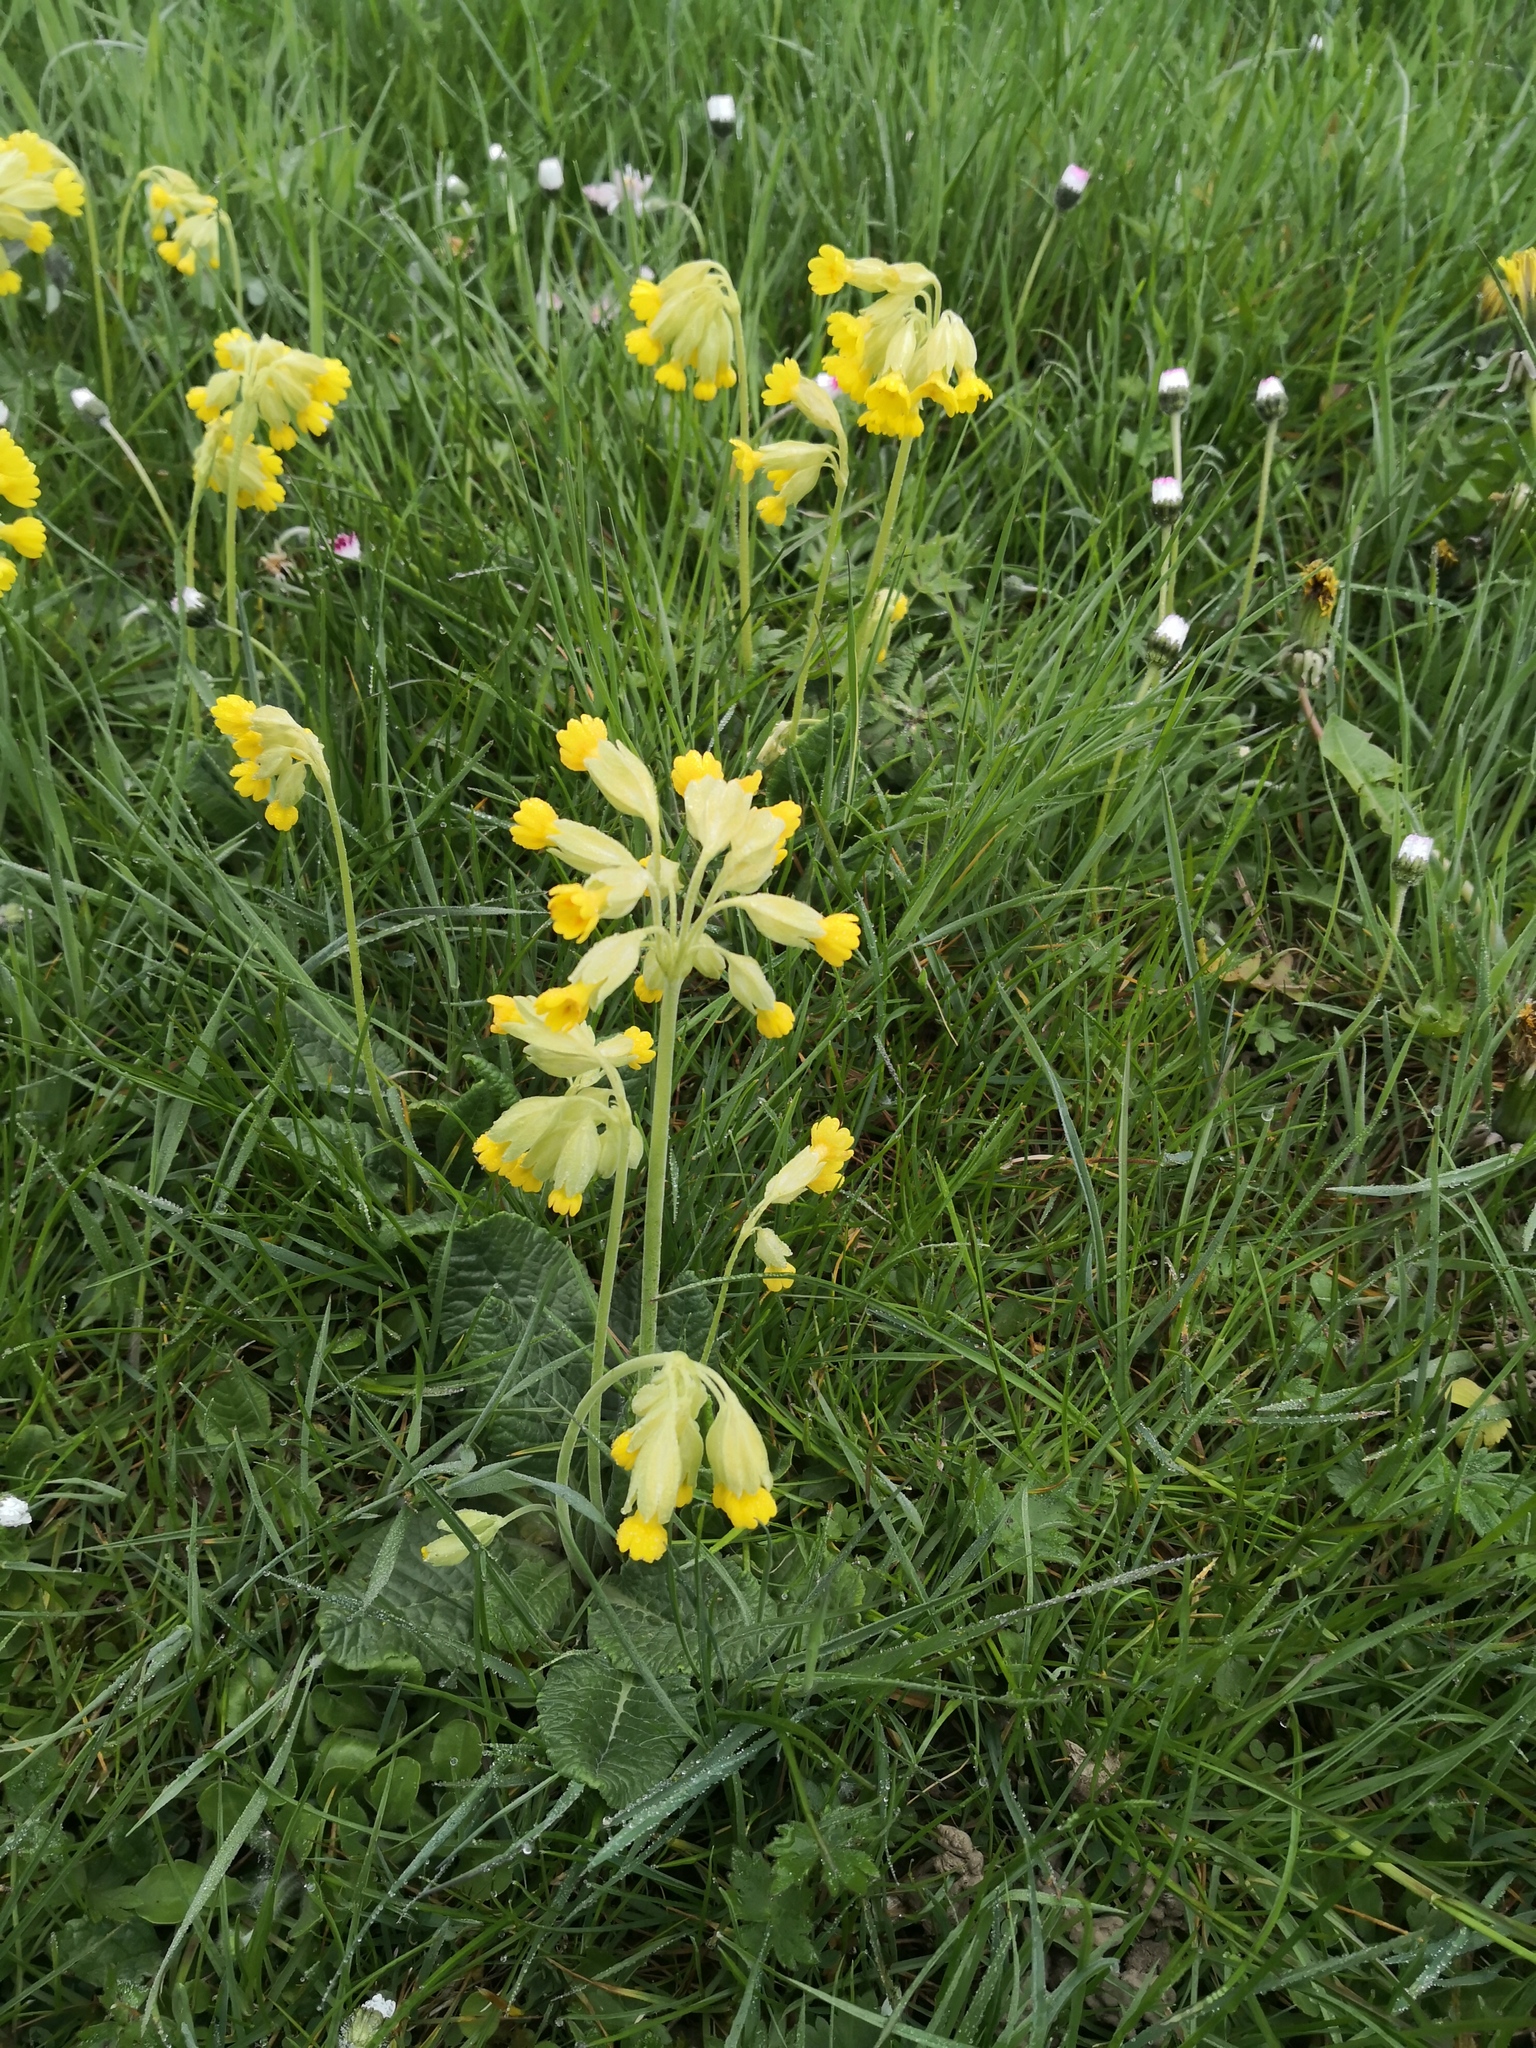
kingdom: Plantae
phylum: Tracheophyta
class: Magnoliopsida
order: Ericales
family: Primulaceae
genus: Primula
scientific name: Primula veris
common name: Cowslip
